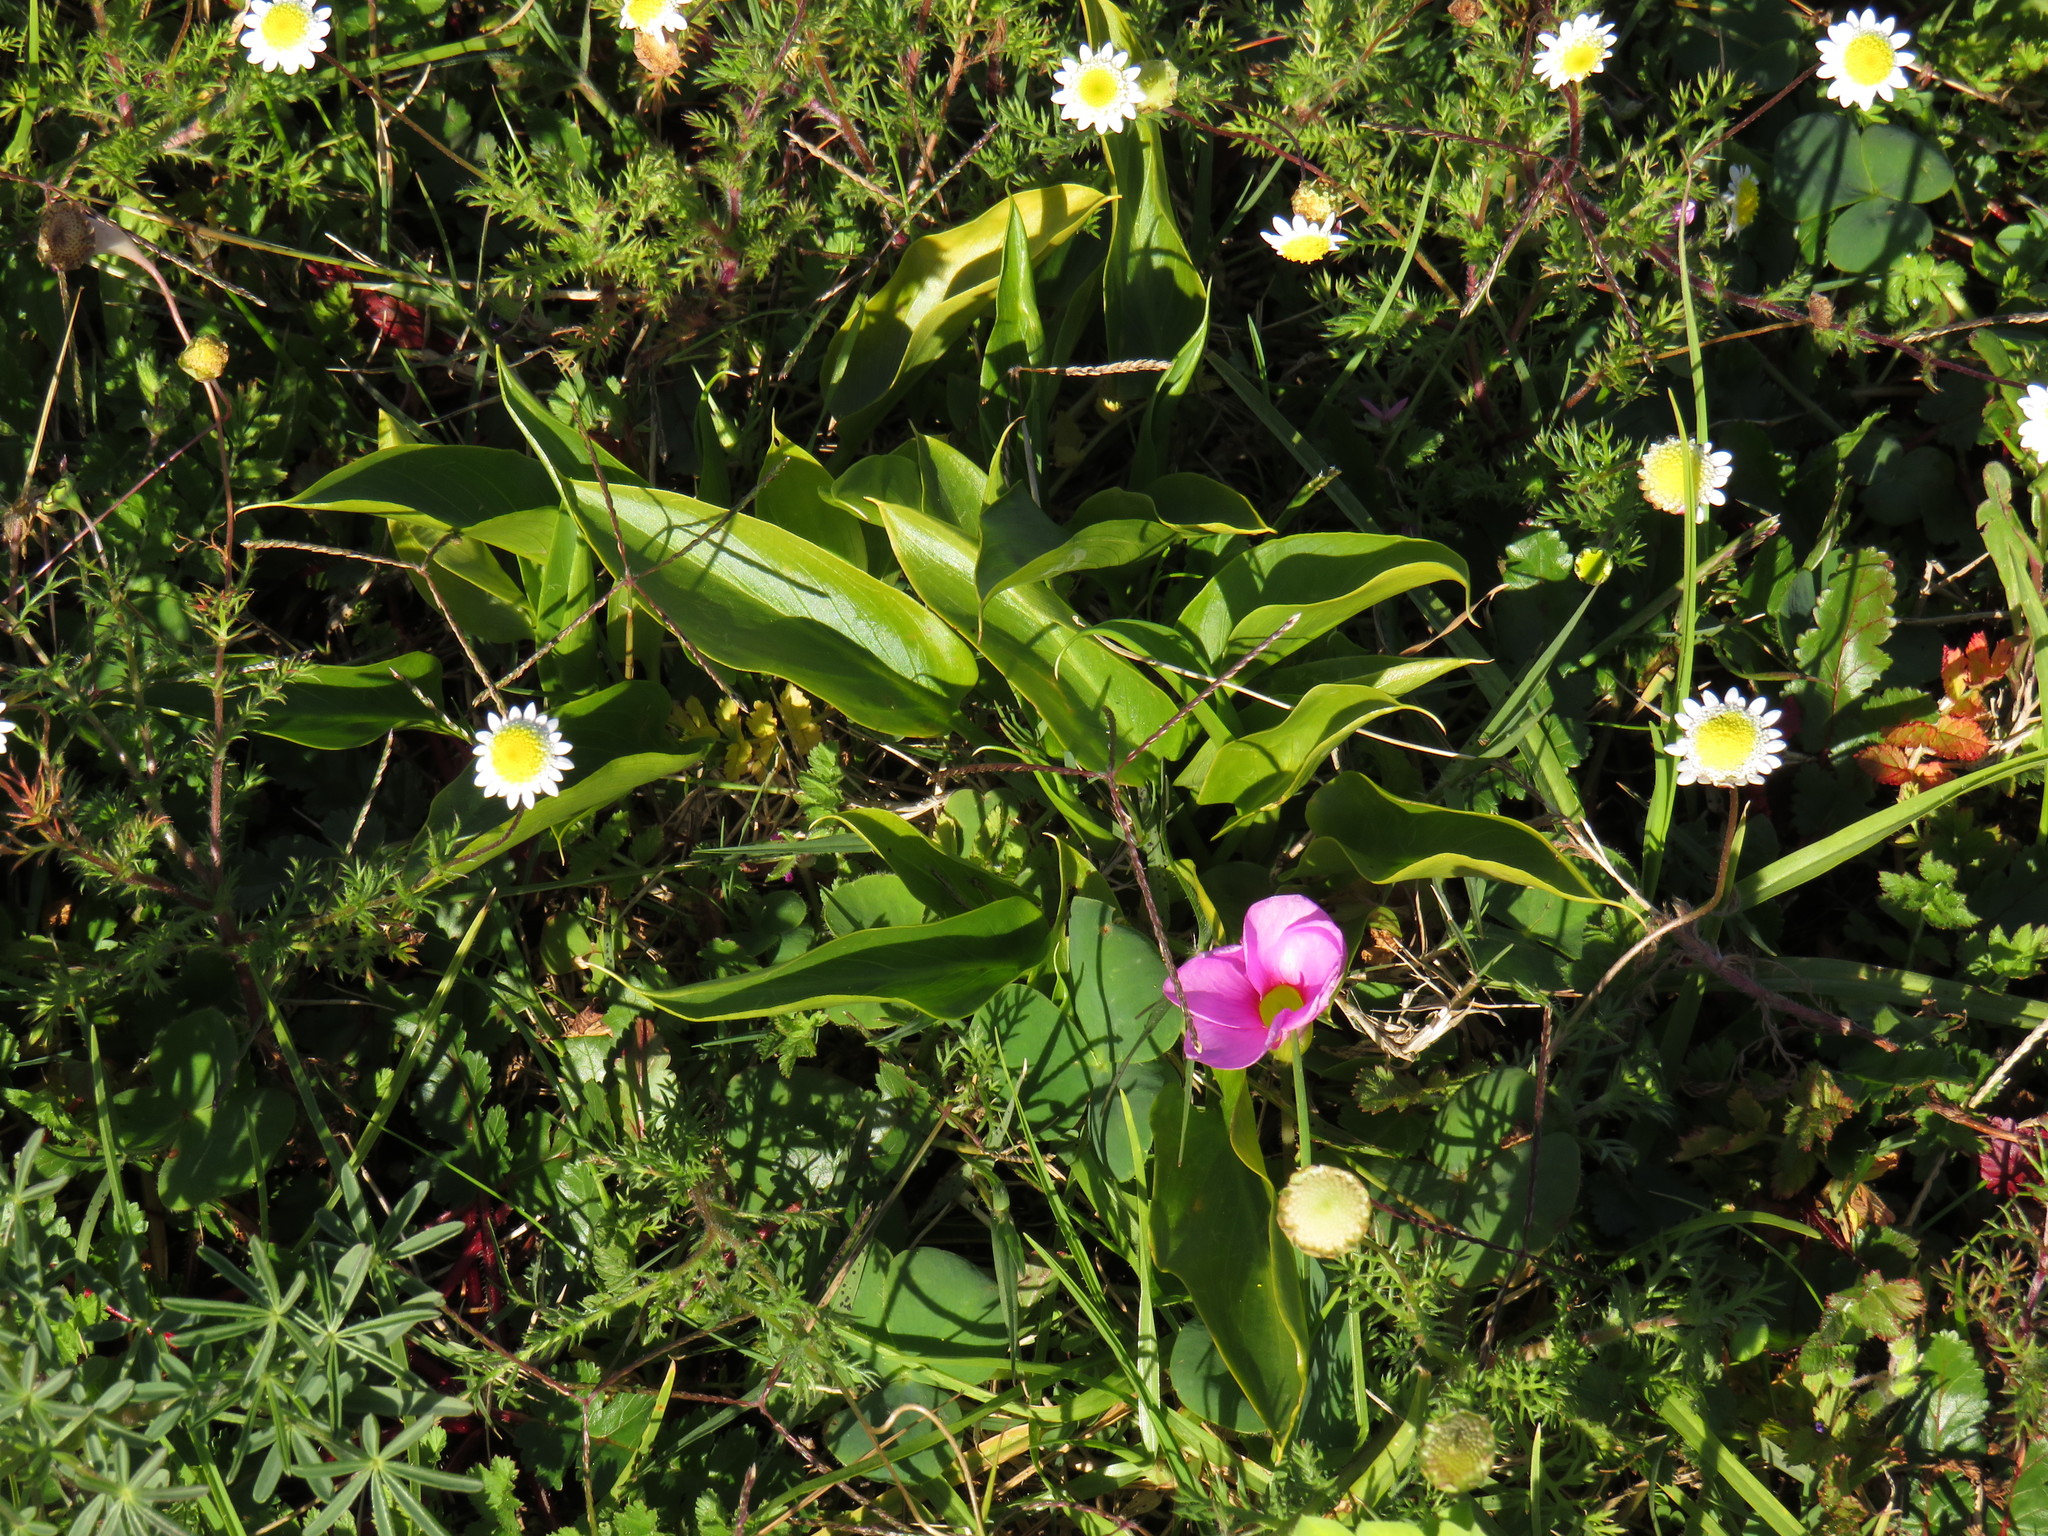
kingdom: Plantae
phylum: Tracheophyta
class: Liliopsida
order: Alismatales
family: Araceae
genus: Zantedeschia
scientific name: Zantedeschia aethiopica
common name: Altar-lily
